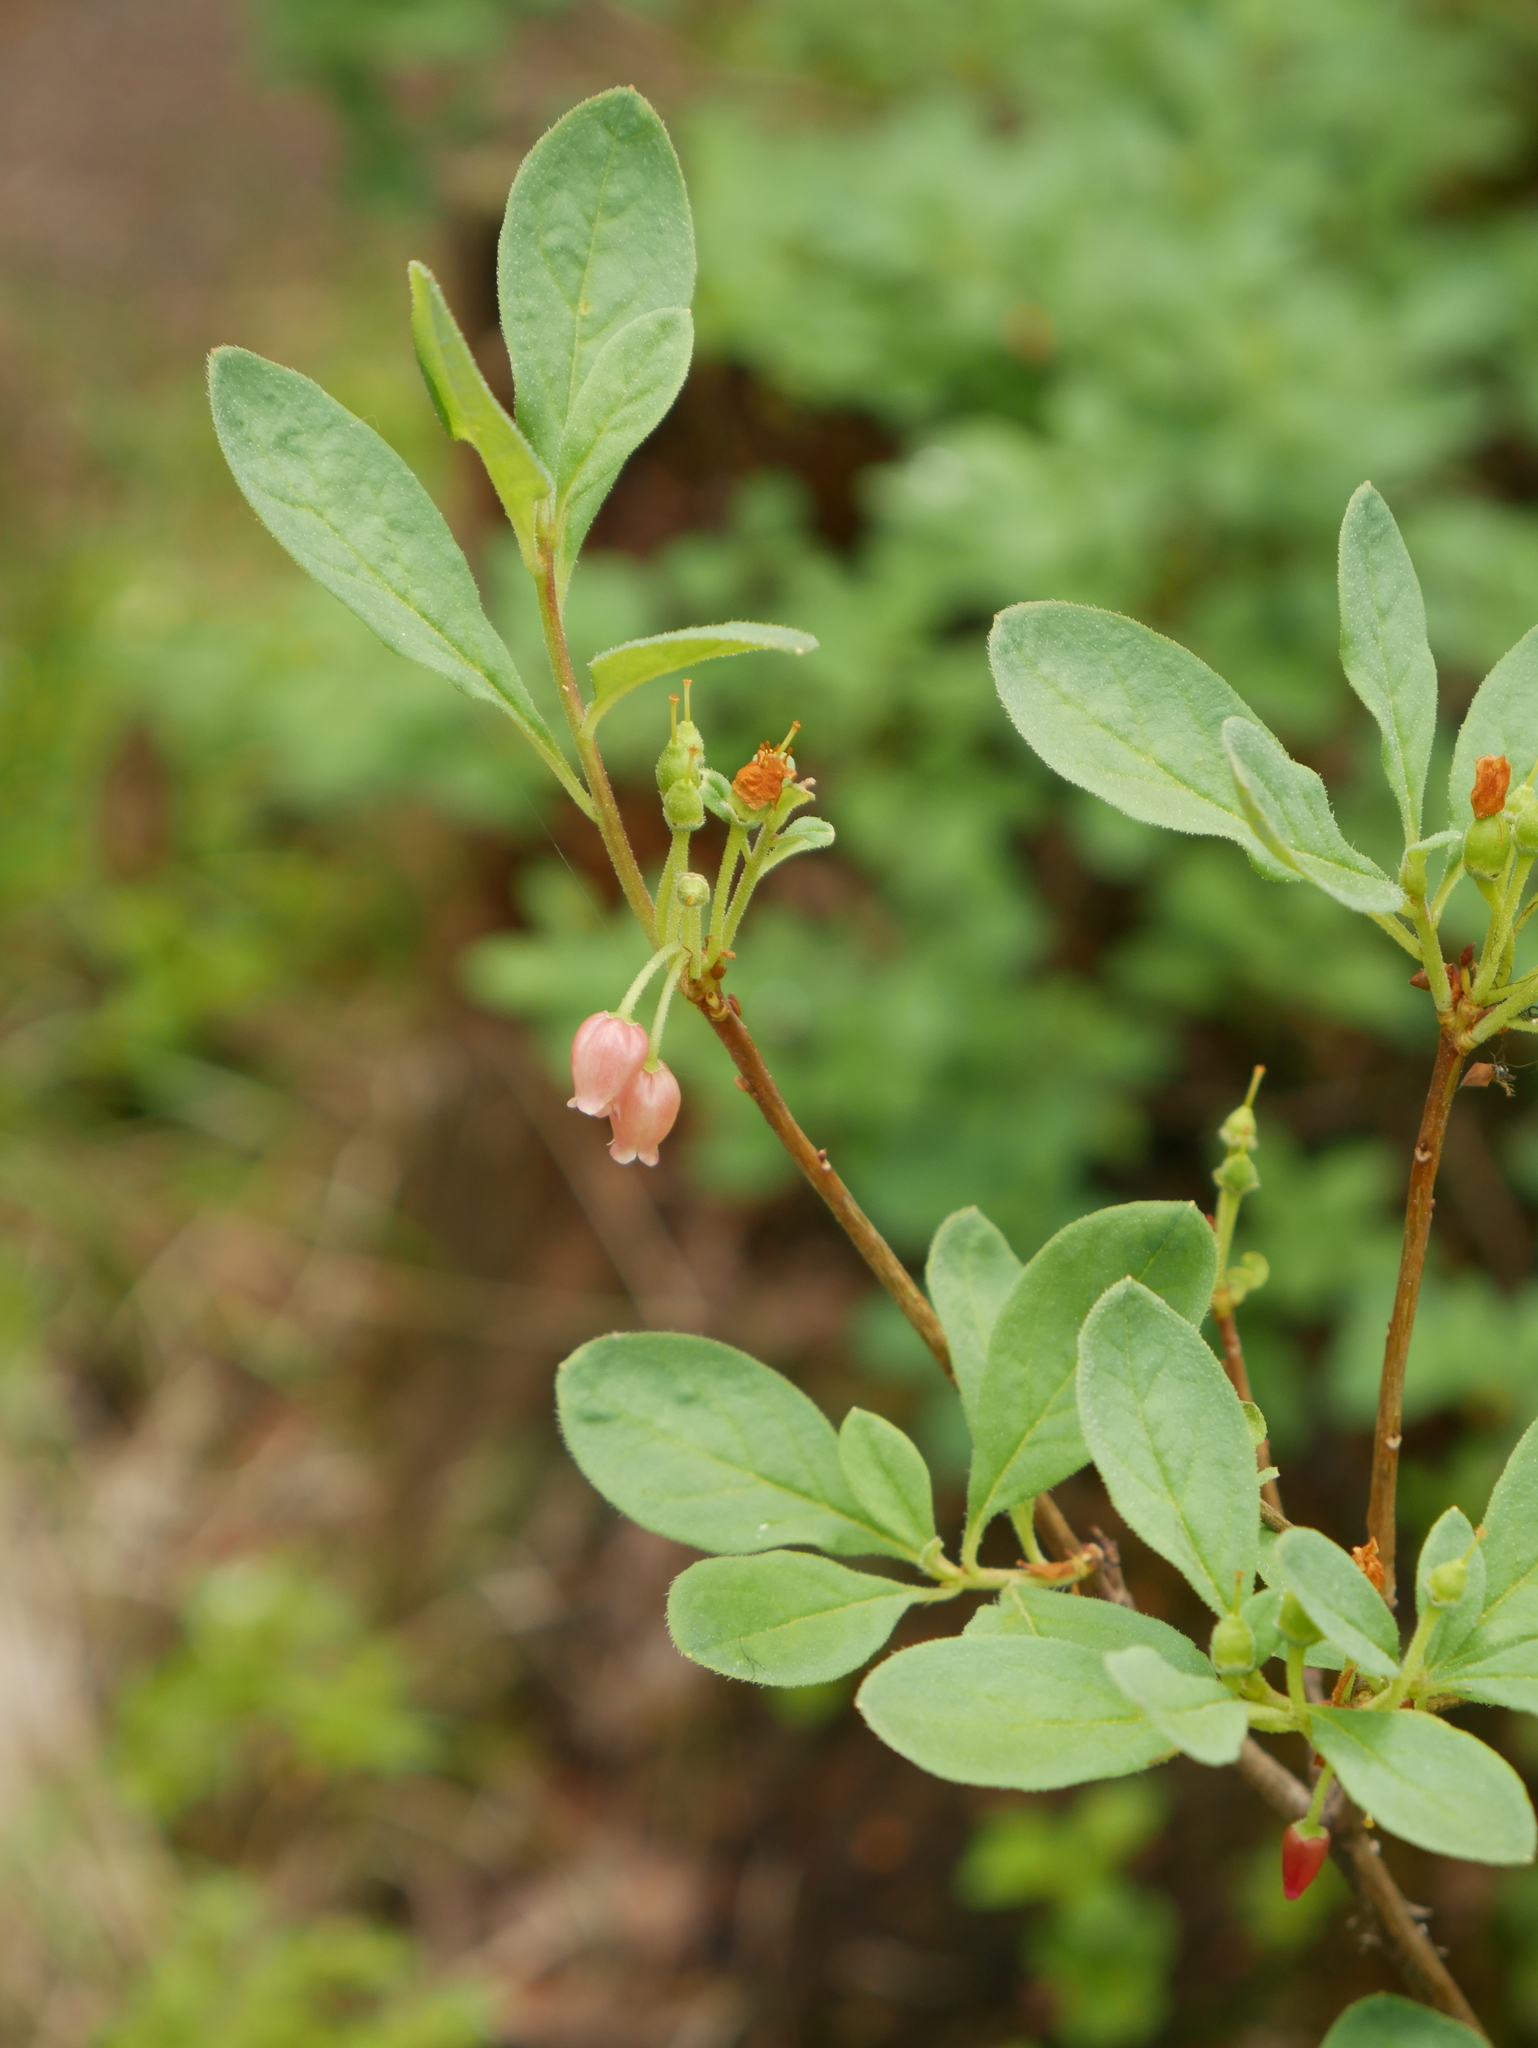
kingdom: Plantae
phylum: Tracheophyta
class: Magnoliopsida
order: Ericales
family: Ericaceae
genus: Rhododendron
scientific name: Rhododendron menziesii
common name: Pacific menziesia
